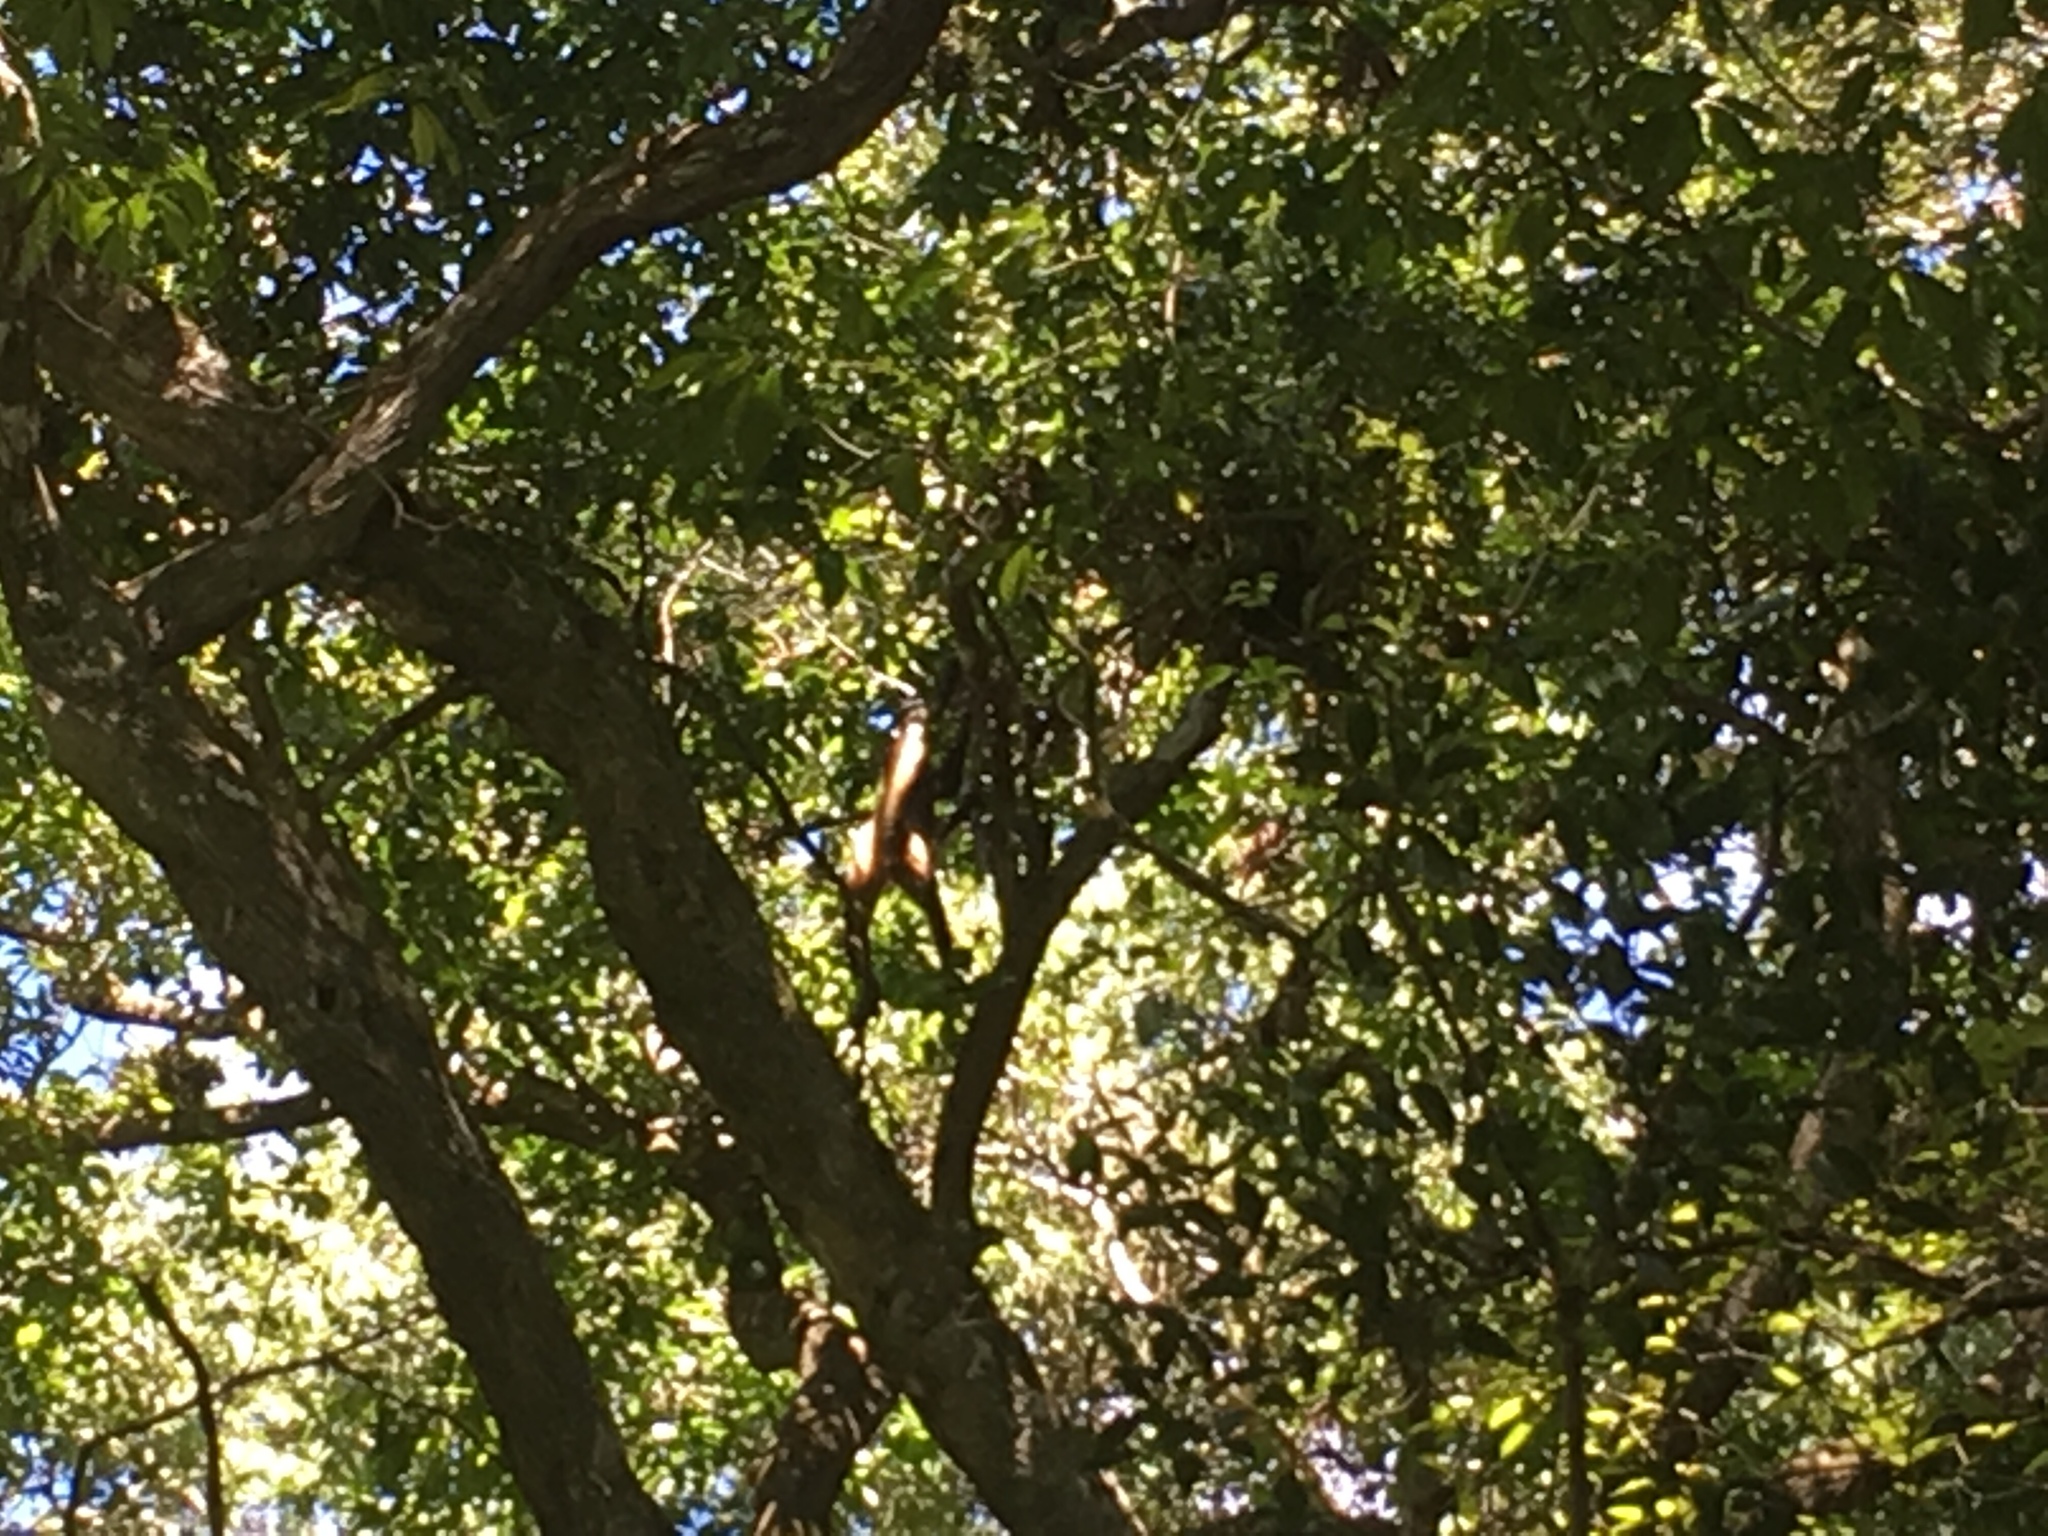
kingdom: Animalia
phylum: Chordata
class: Mammalia
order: Primates
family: Atelidae
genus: Ateles
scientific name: Ateles geoffroyi
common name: Black-handed spider monkey
